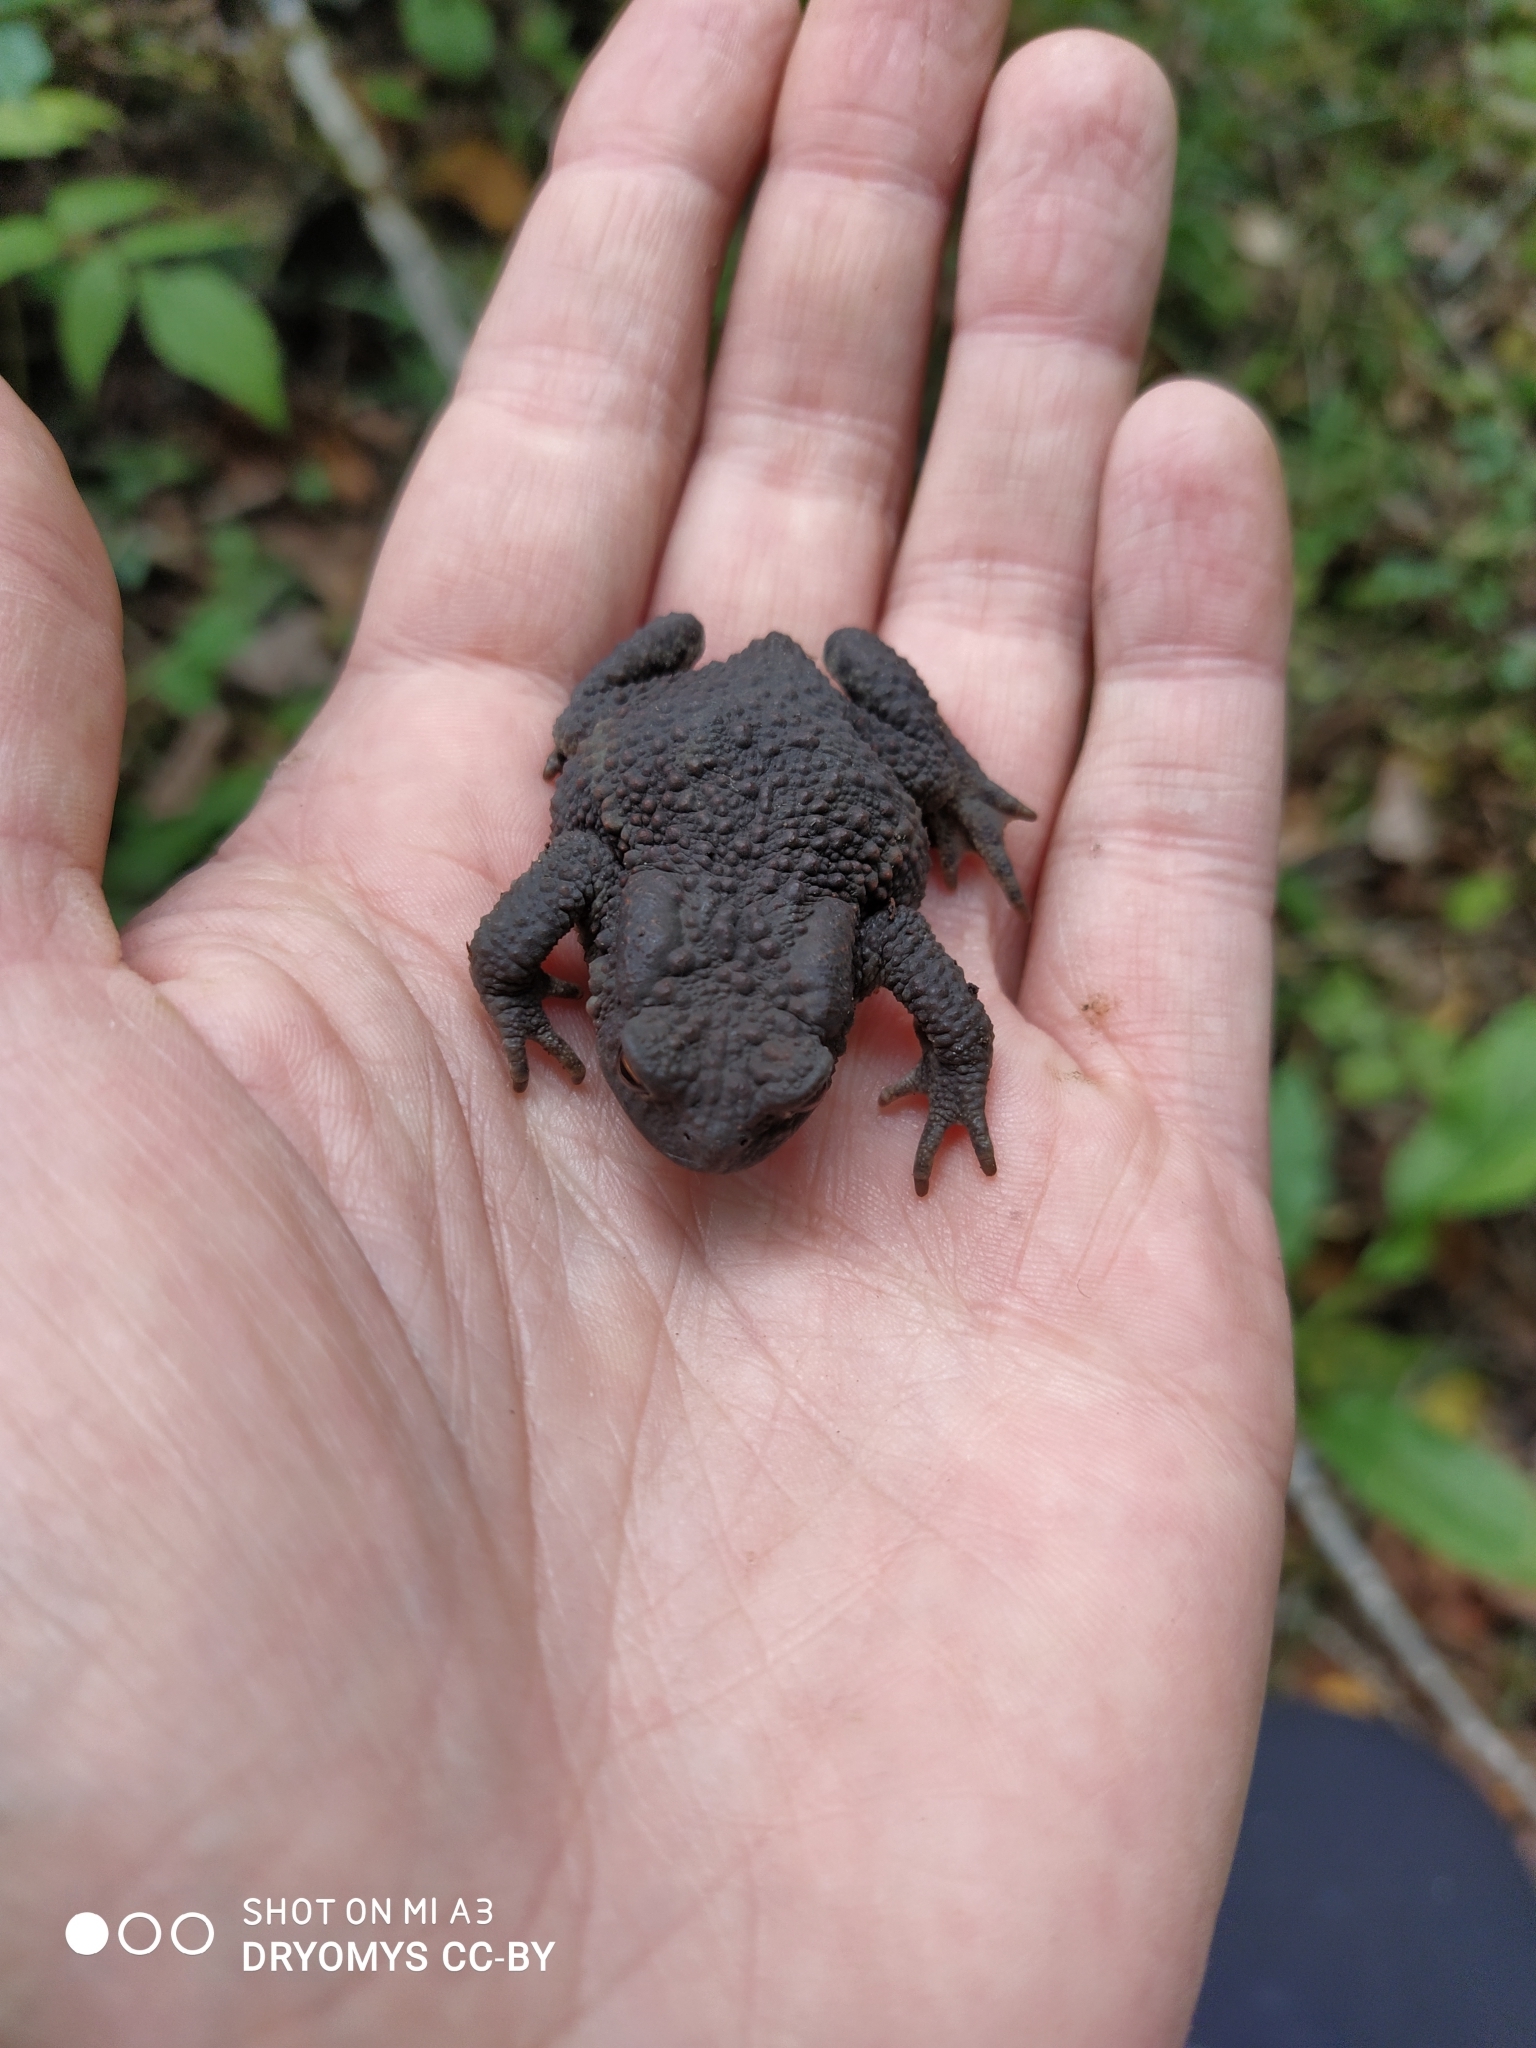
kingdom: Animalia
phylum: Chordata
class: Amphibia
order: Anura
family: Bufonidae
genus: Bufo
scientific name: Bufo bufo
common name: Common toad
